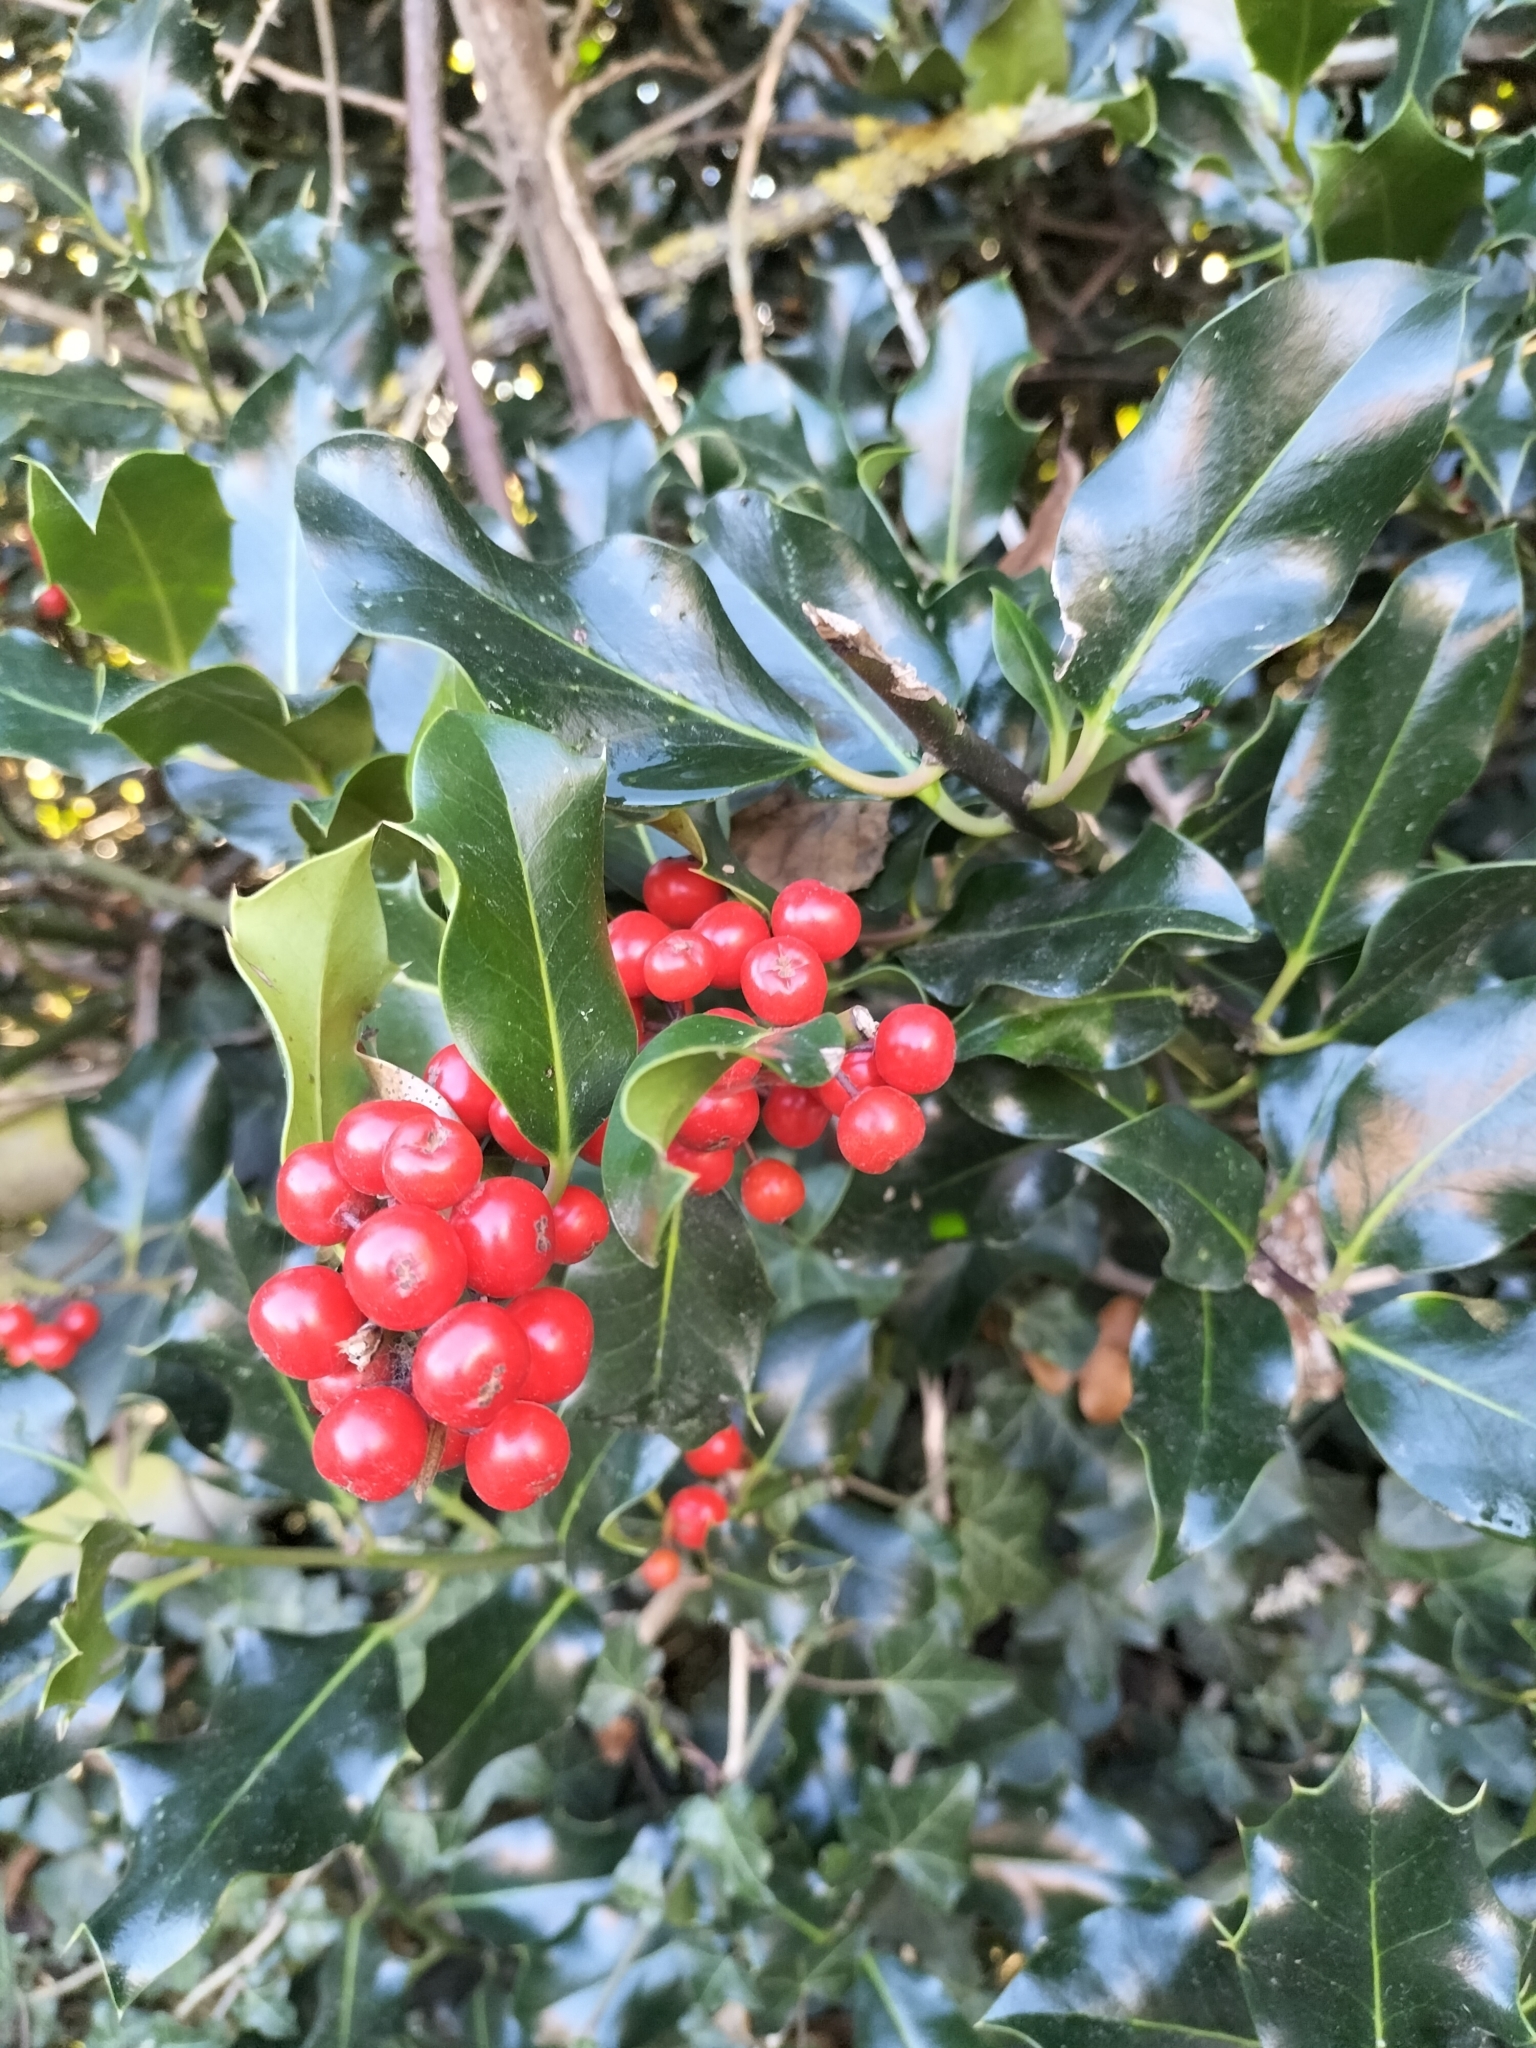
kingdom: Plantae
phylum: Tracheophyta
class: Magnoliopsida
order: Aquifoliales
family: Aquifoliaceae
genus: Ilex
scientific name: Ilex aquifolium
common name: English holly
